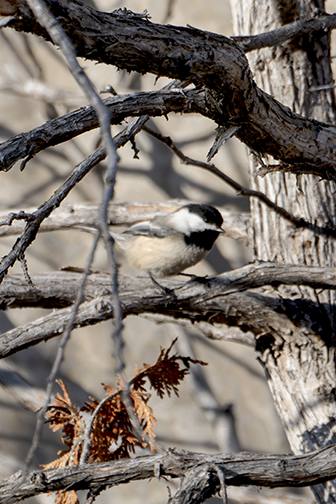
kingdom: Animalia
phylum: Chordata
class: Aves
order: Passeriformes
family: Paridae
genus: Poecile
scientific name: Poecile atricapillus
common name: Black-capped chickadee
